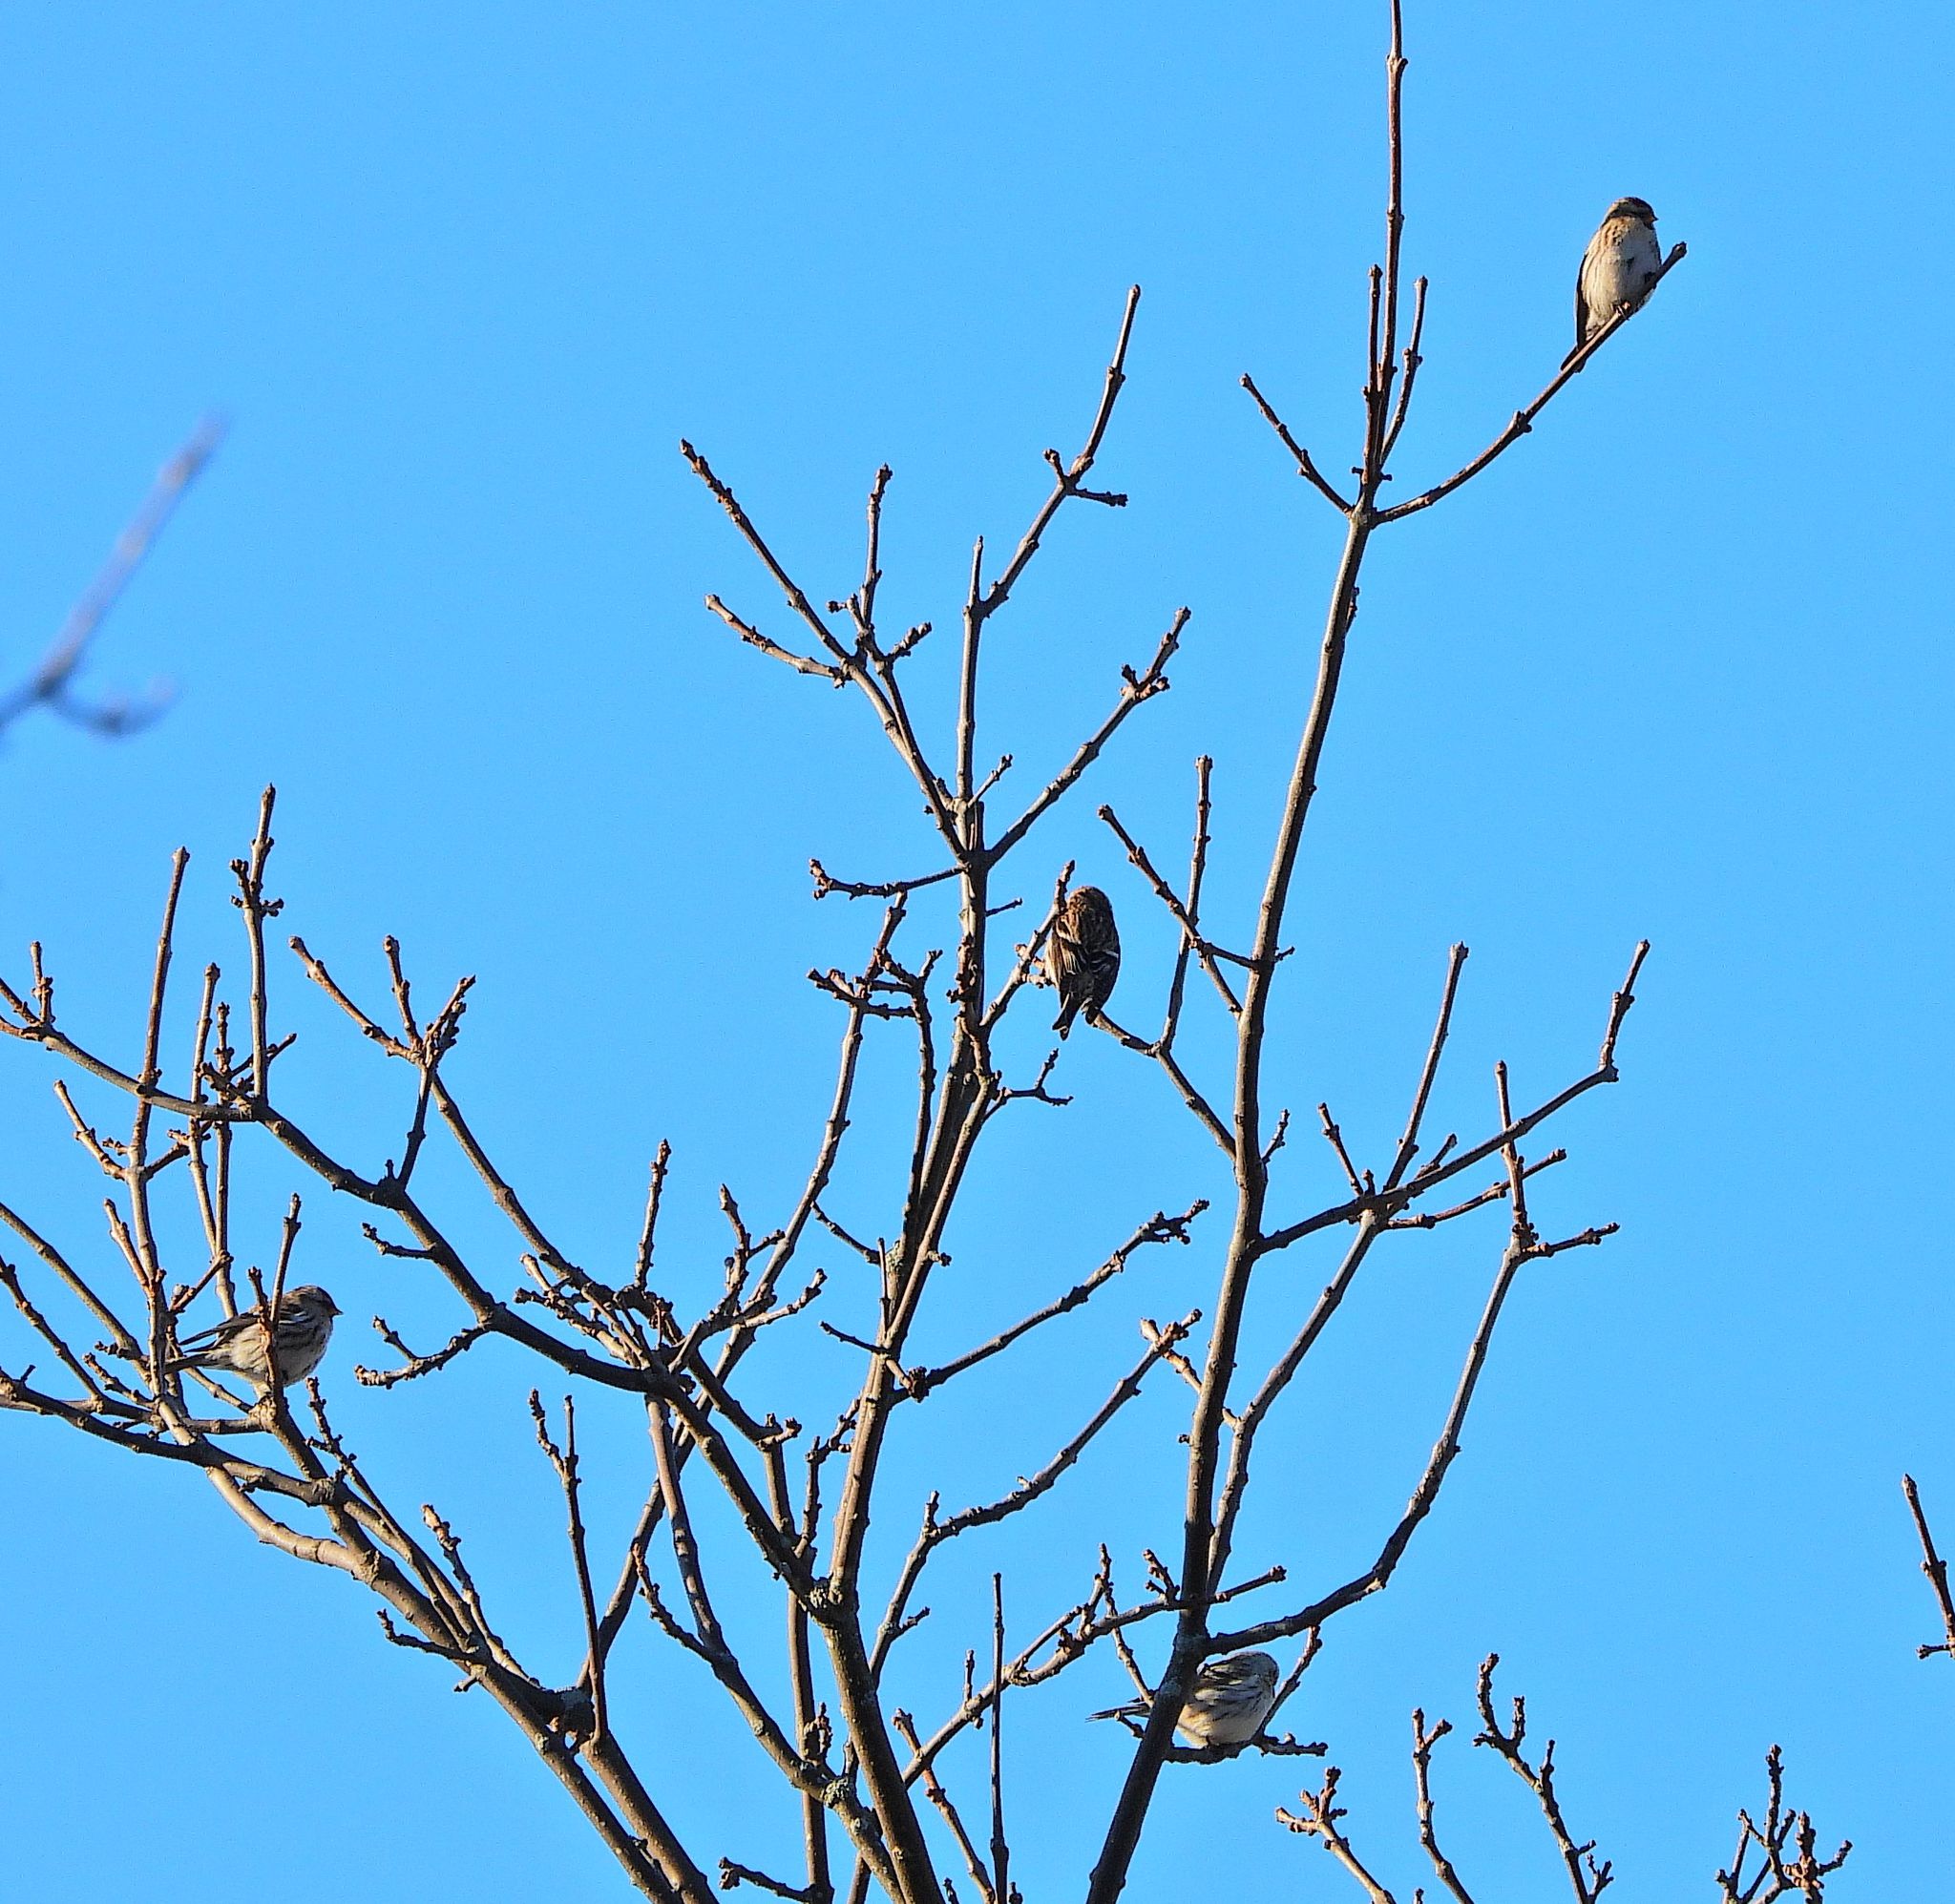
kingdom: Animalia
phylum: Chordata
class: Aves
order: Passeriformes
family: Fringillidae
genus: Acanthis
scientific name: Acanthis flammea
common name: Common redpoll
